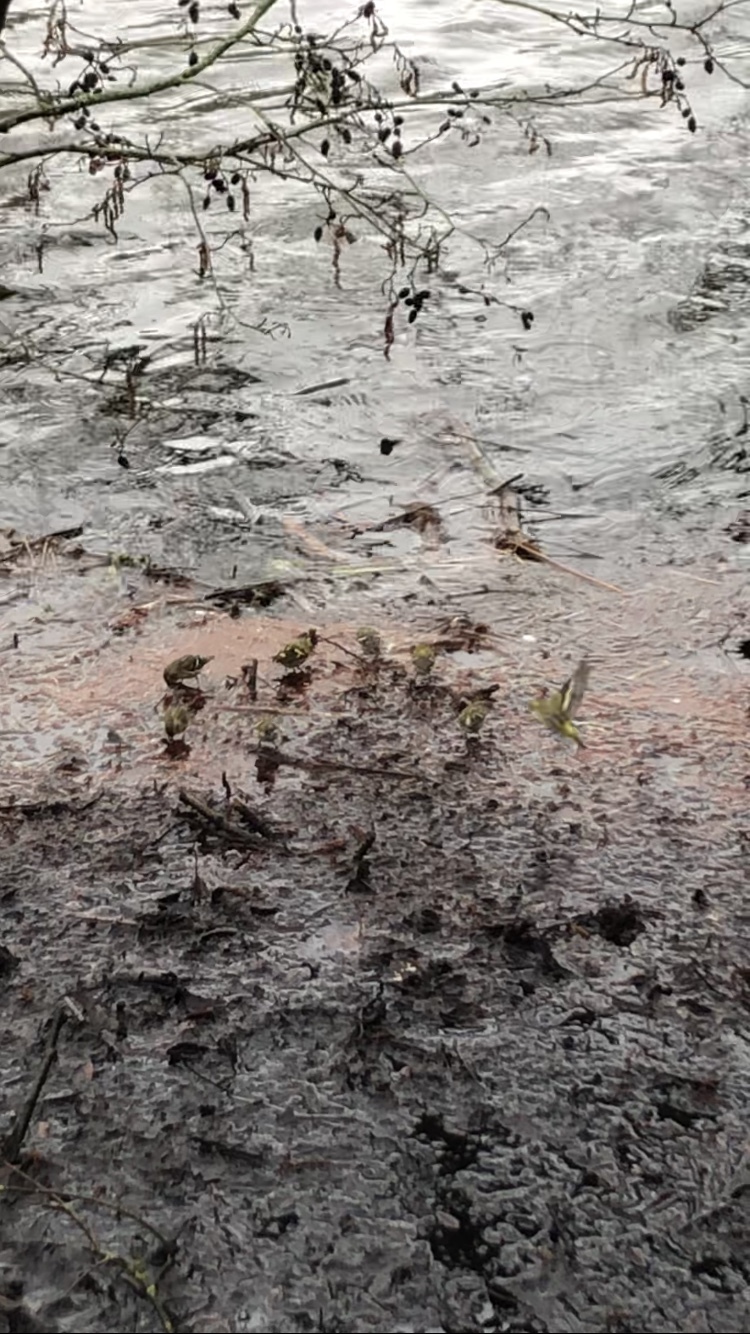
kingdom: Animalia
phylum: Chordata
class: Aves
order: Passeriformes
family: Fringillidae
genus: Spinus
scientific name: Spinus spinus
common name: Eurasian siskin
